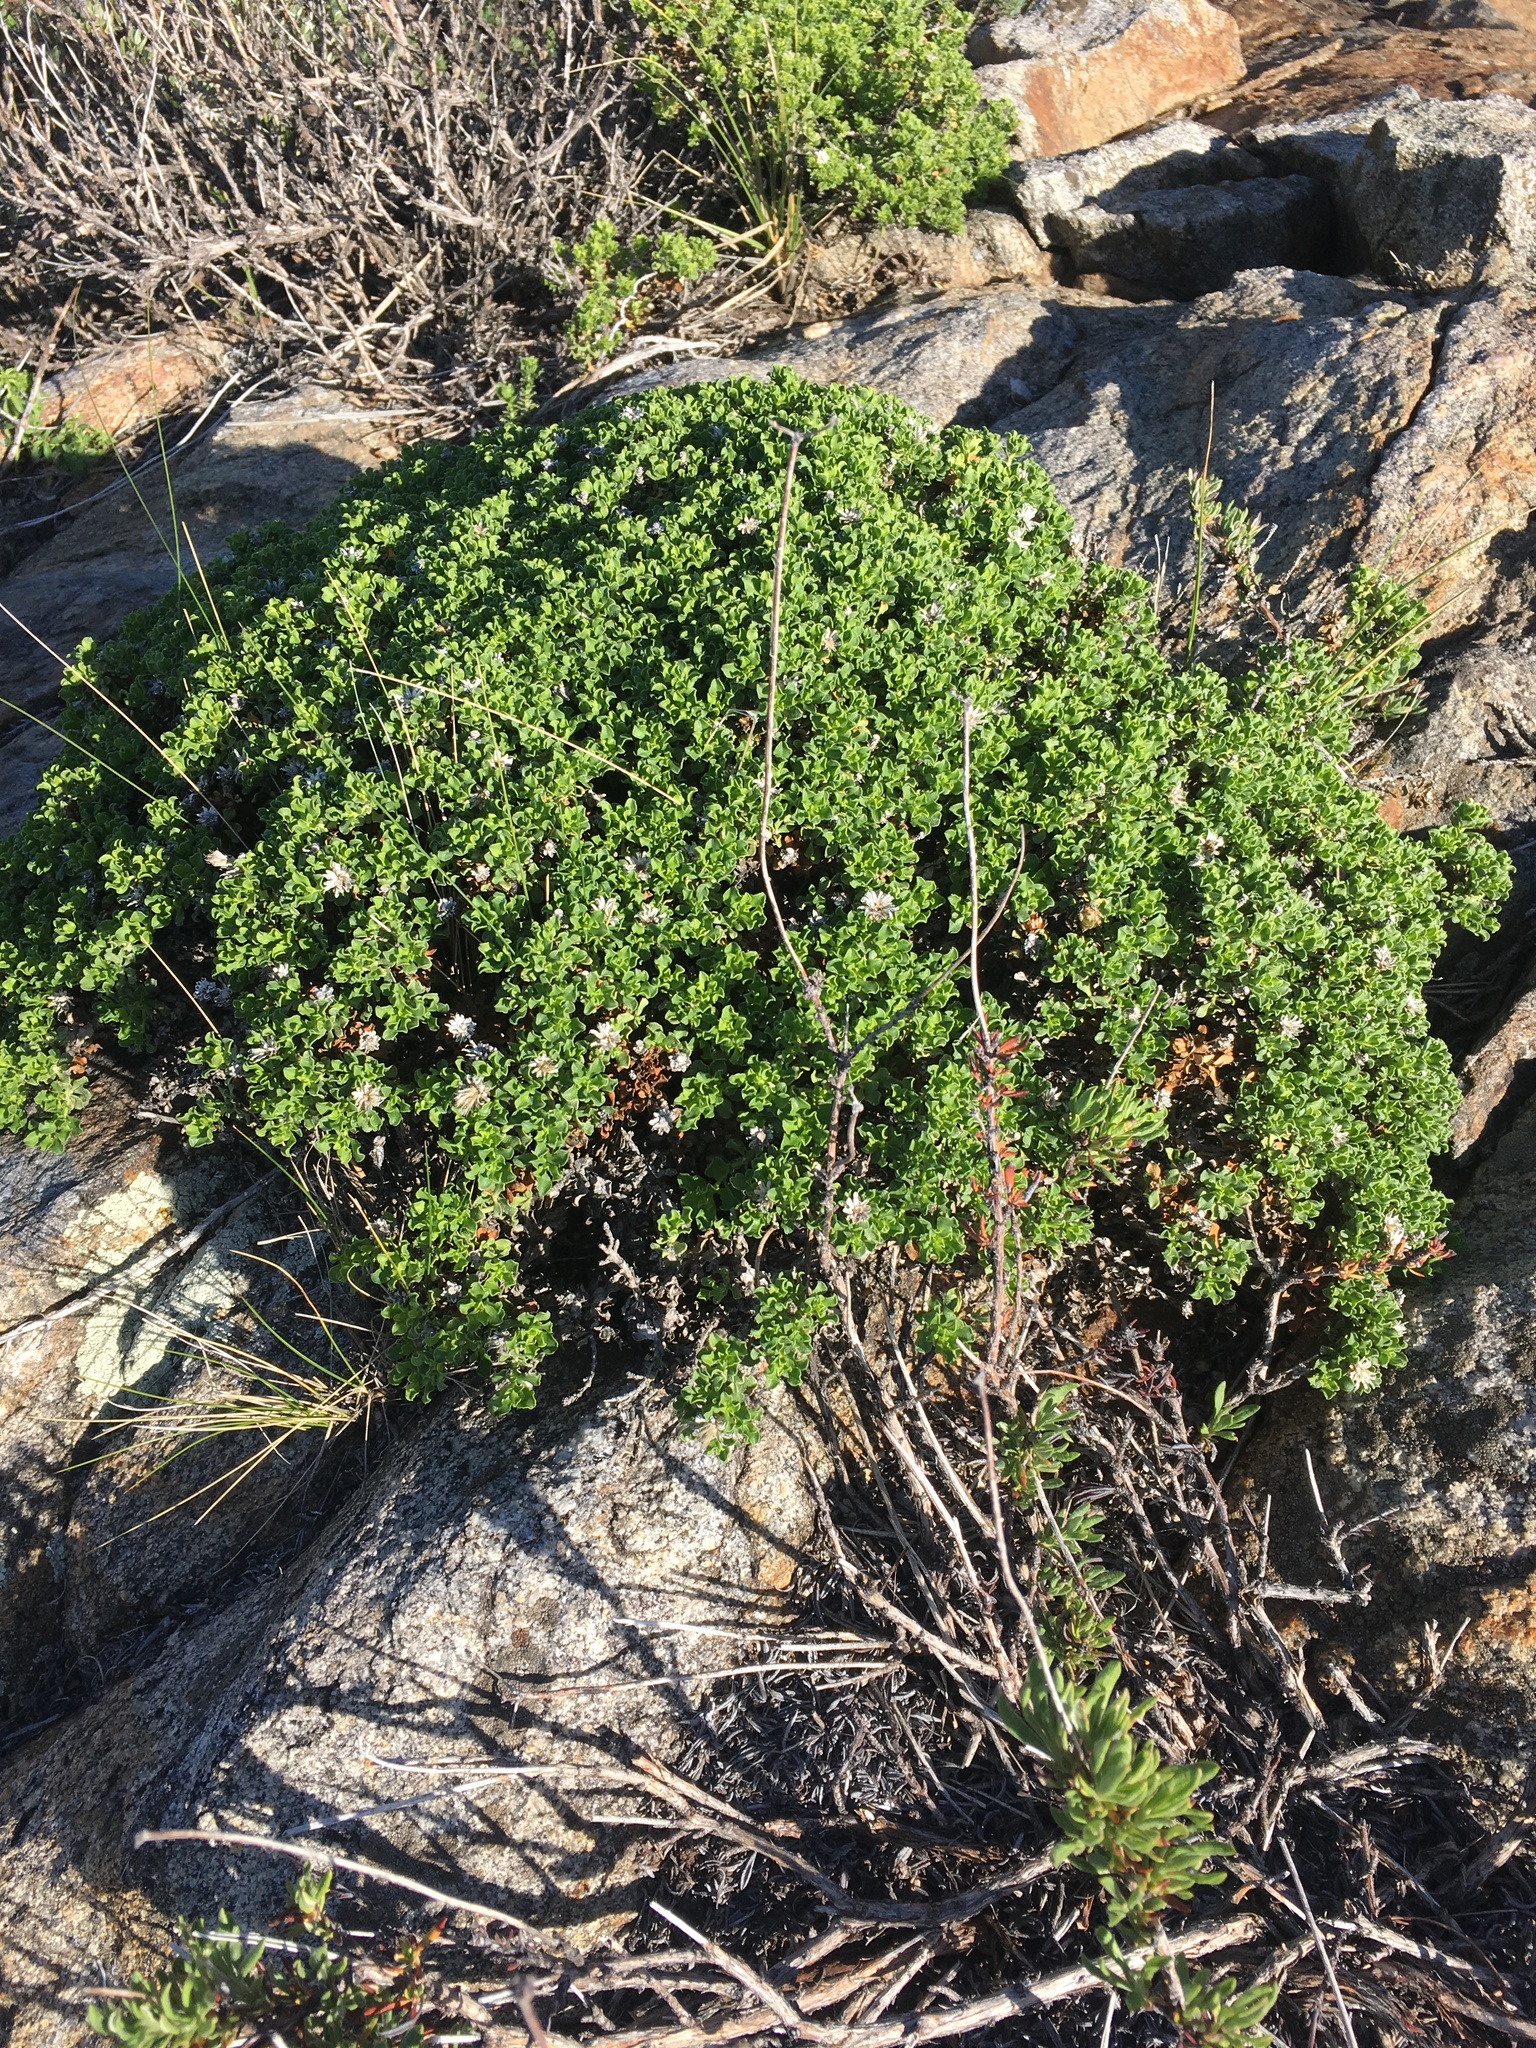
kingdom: Plantae
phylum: Tracheophyta
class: Magnoliopsida
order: Asterales
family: Asteraceae
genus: Ericameria
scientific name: Ericameria cuneata
